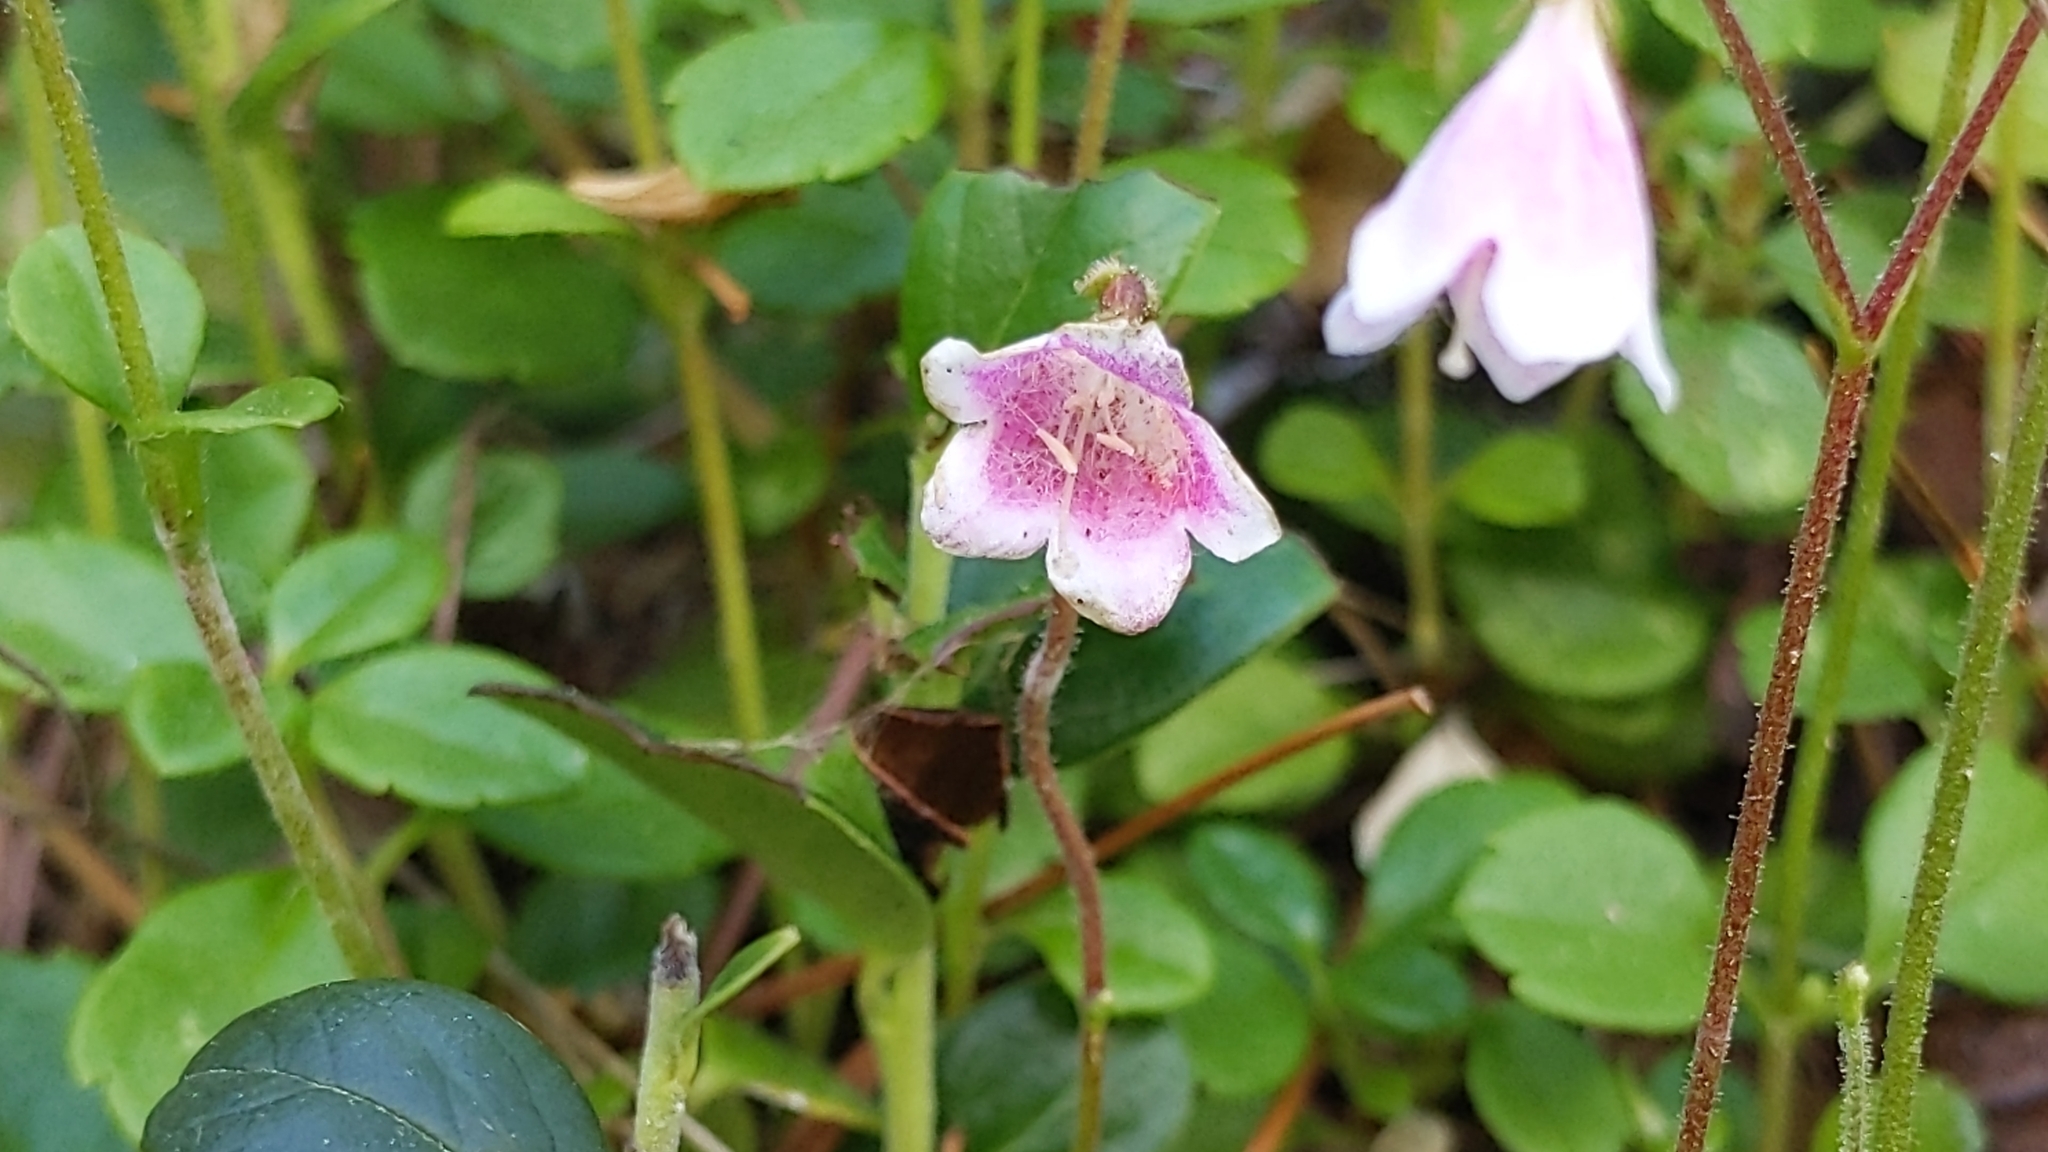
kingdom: Plantae
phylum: Tracheophyta
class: Magnoliopsida
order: Dipsacales
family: Caprifoliaceae
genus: Linnaea
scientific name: Linnaea borealis
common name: Twinflower
